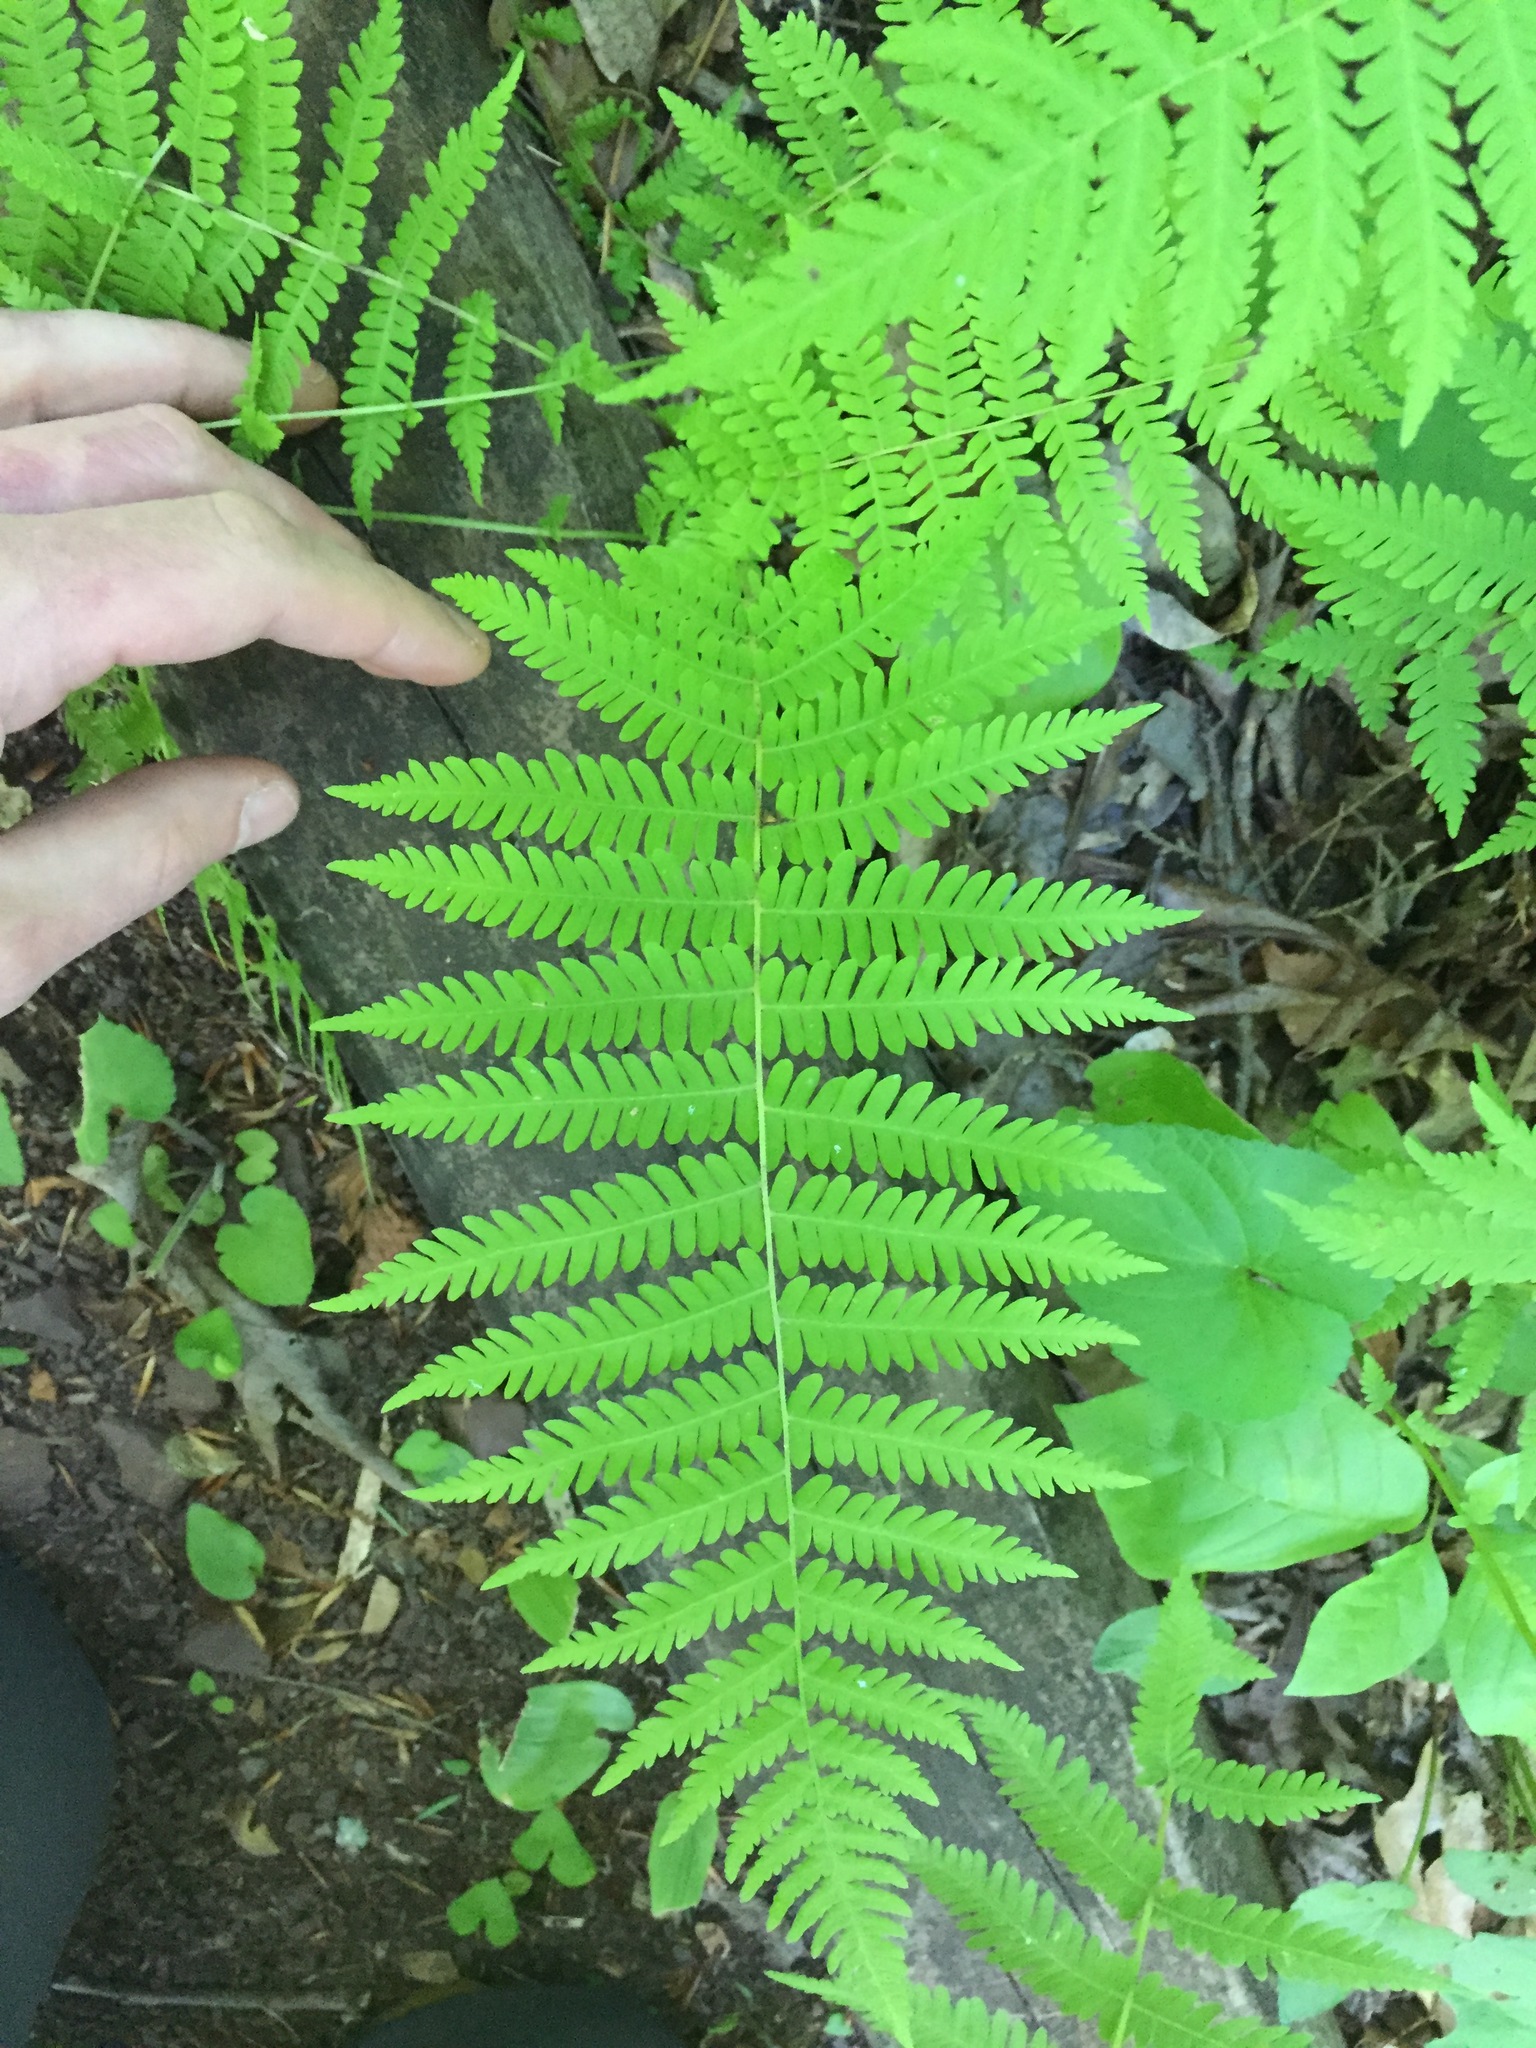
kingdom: Plantae
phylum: Tracheophyta
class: Polypodiopsida
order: Polypodiales
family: Thelypteridaceae
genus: Amauropelta
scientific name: Amauropelta noveboracensis
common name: New york fern
